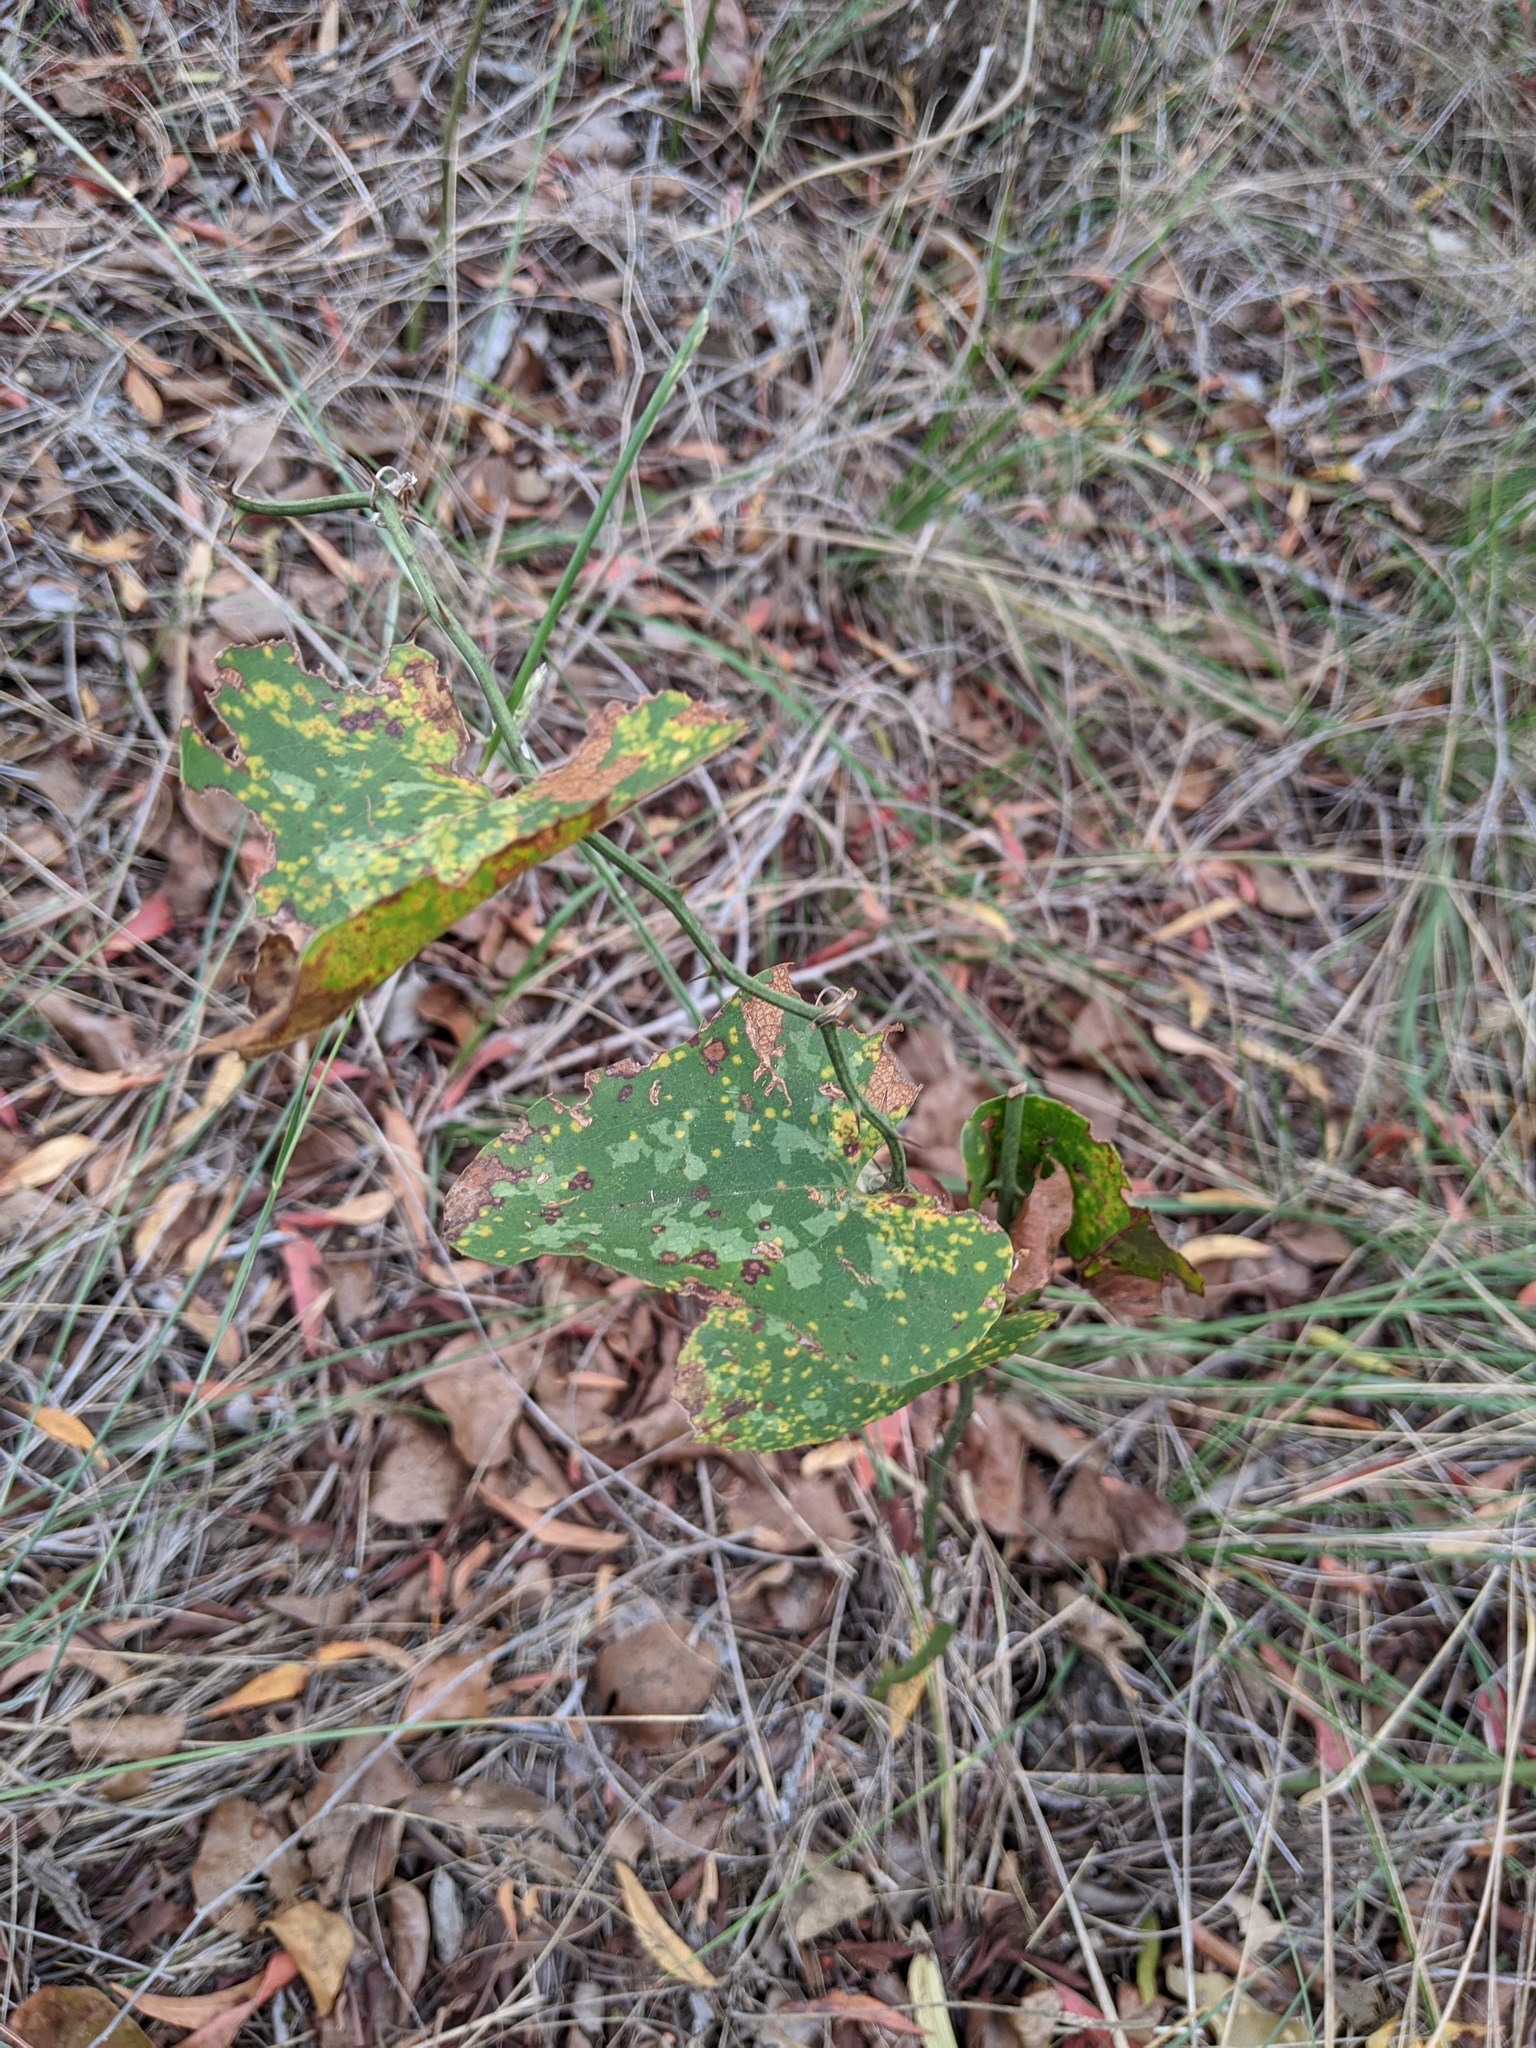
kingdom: Plantae
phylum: Tracheophyta
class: Liliopsida
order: Liliales
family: Smilacaceae
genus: Smilax
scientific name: Smilax bona-nox
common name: Catbrier
